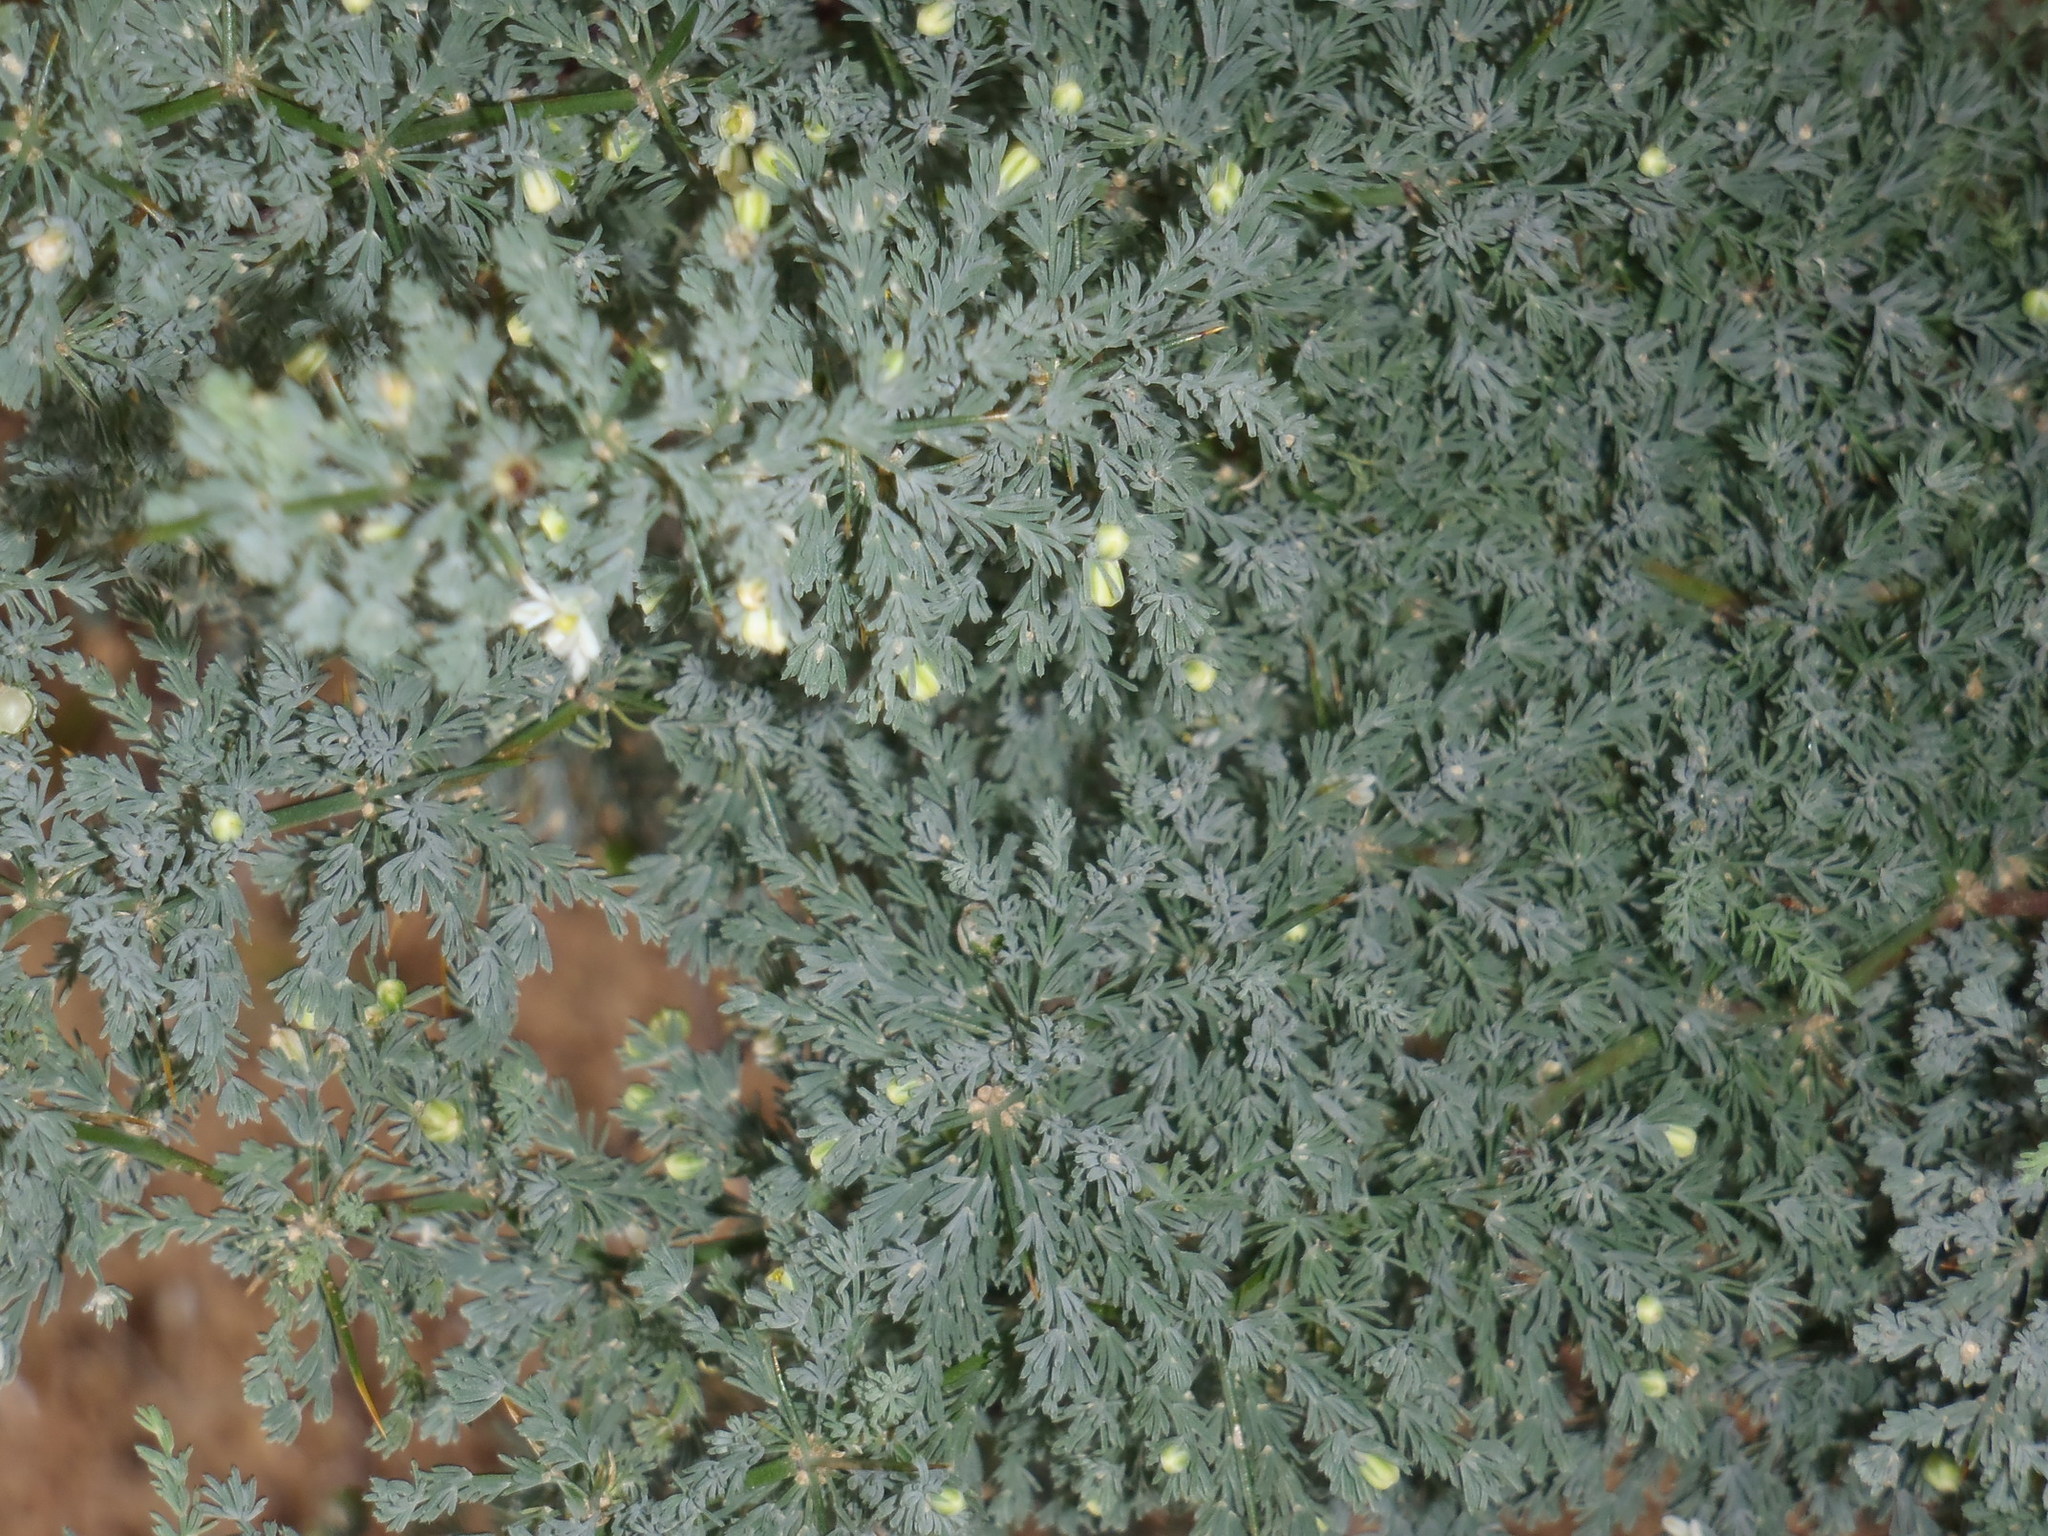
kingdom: Plantae
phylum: Tracheophyta
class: Liliopsida
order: Asparagales
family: Asparagaceae
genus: Asparagus
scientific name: Asparagus capensis
